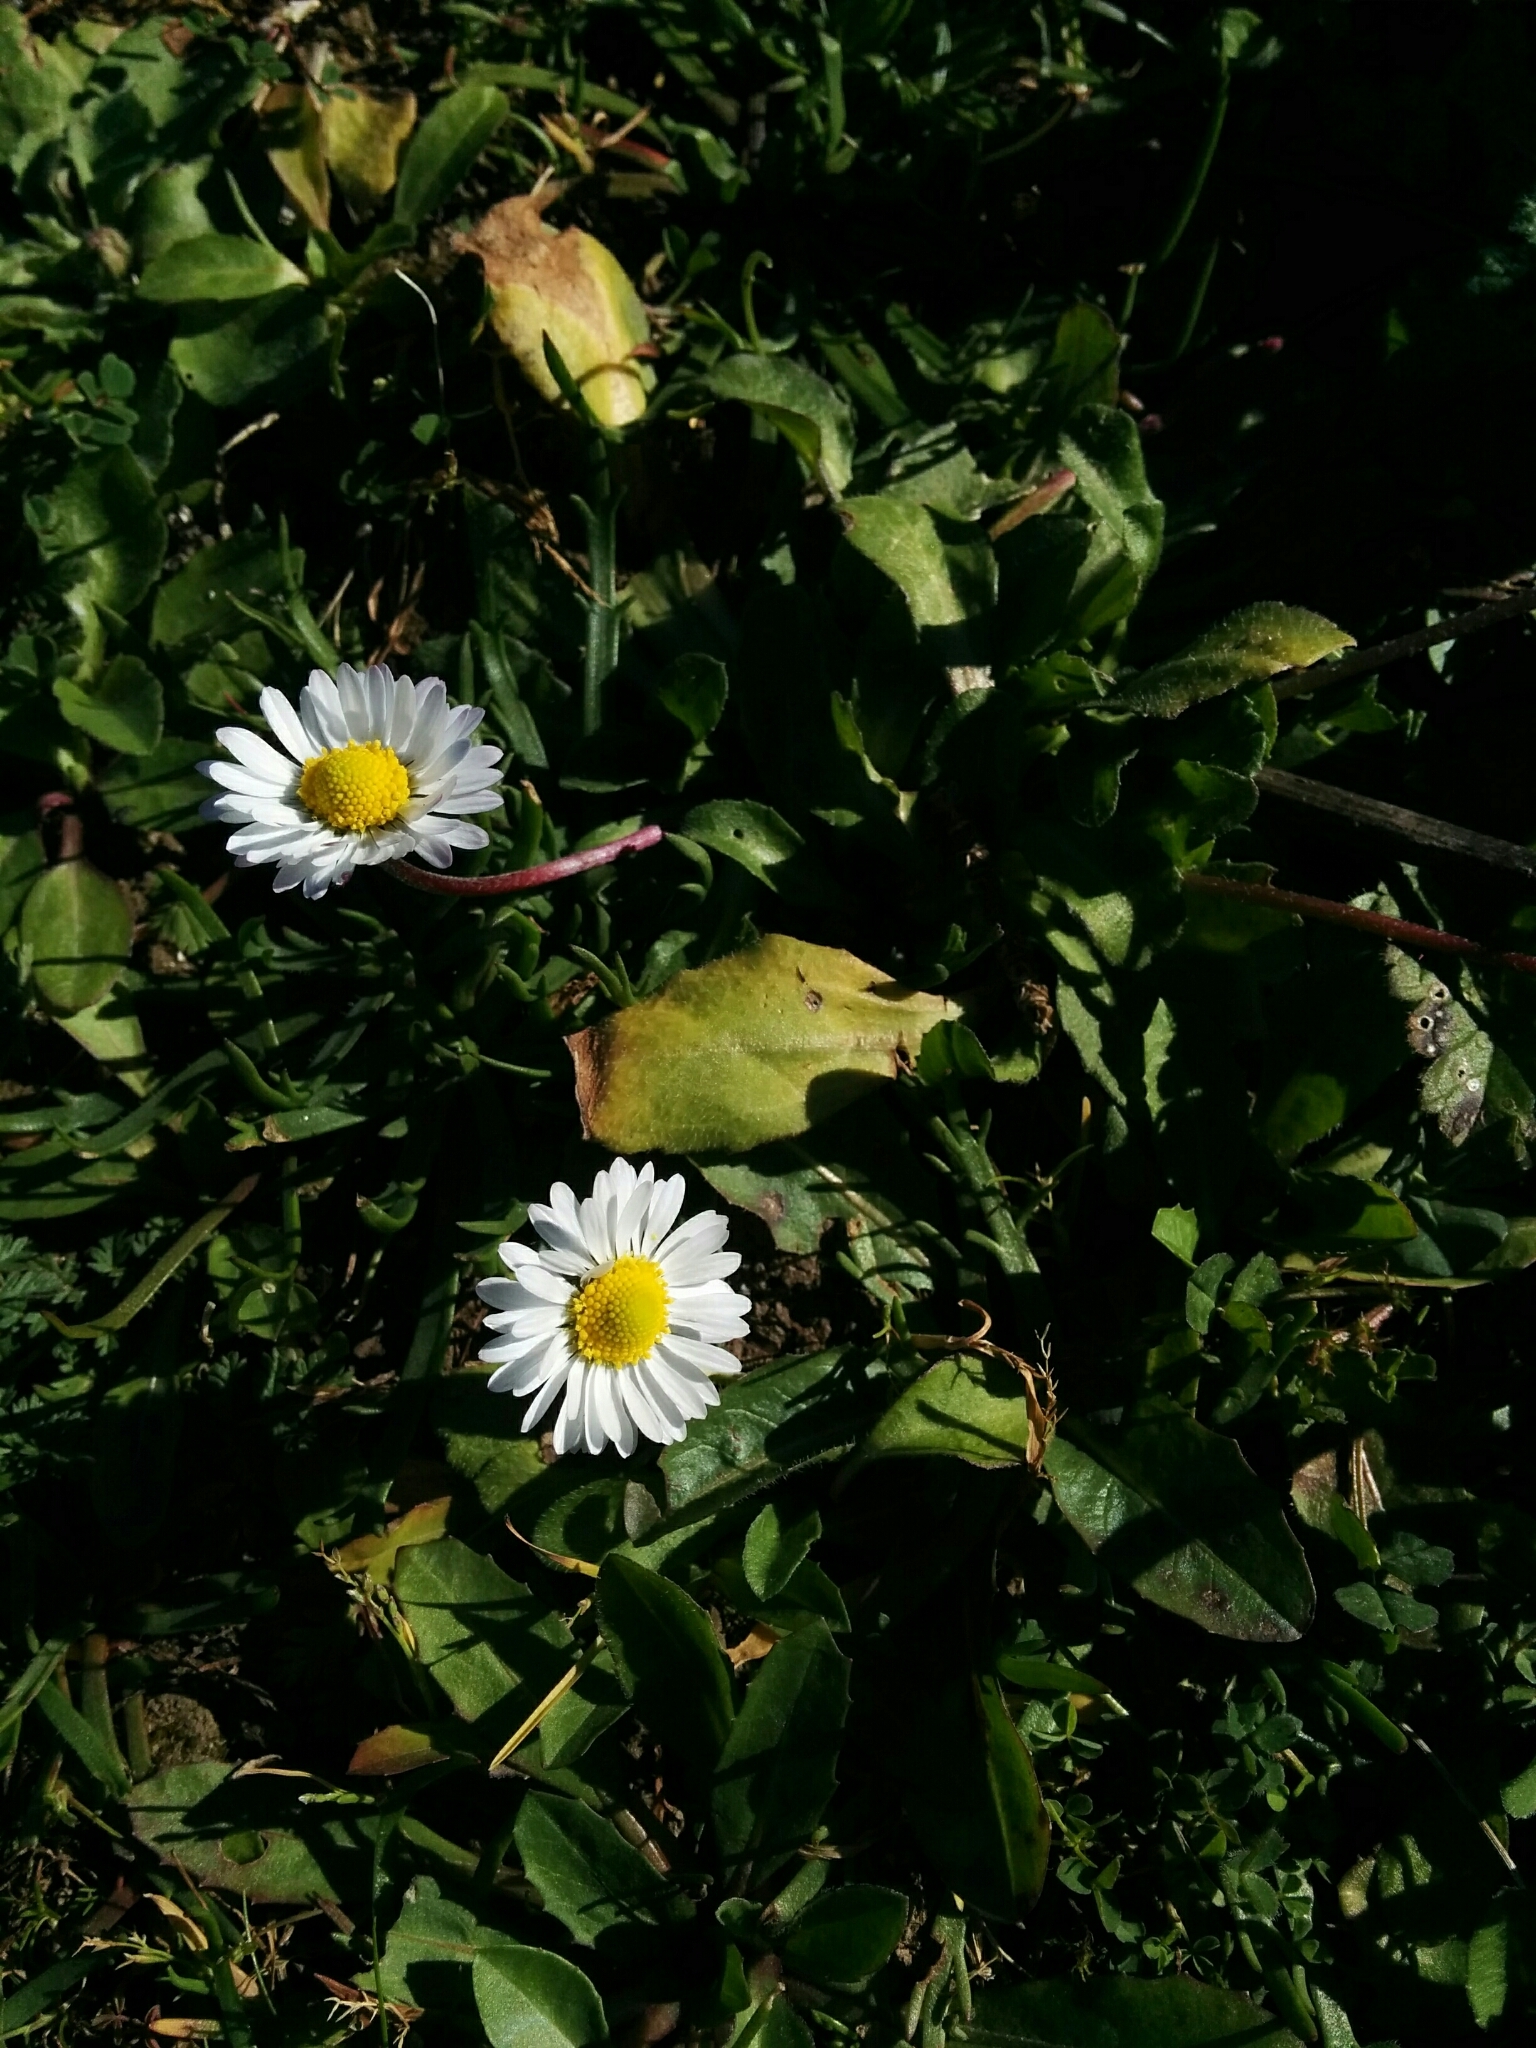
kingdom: Plantae
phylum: Tracheophyta
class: Magnoliopsida
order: Asterales
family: Asteraceae
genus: Bellis
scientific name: Bellis perennis
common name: Lawndaisy
